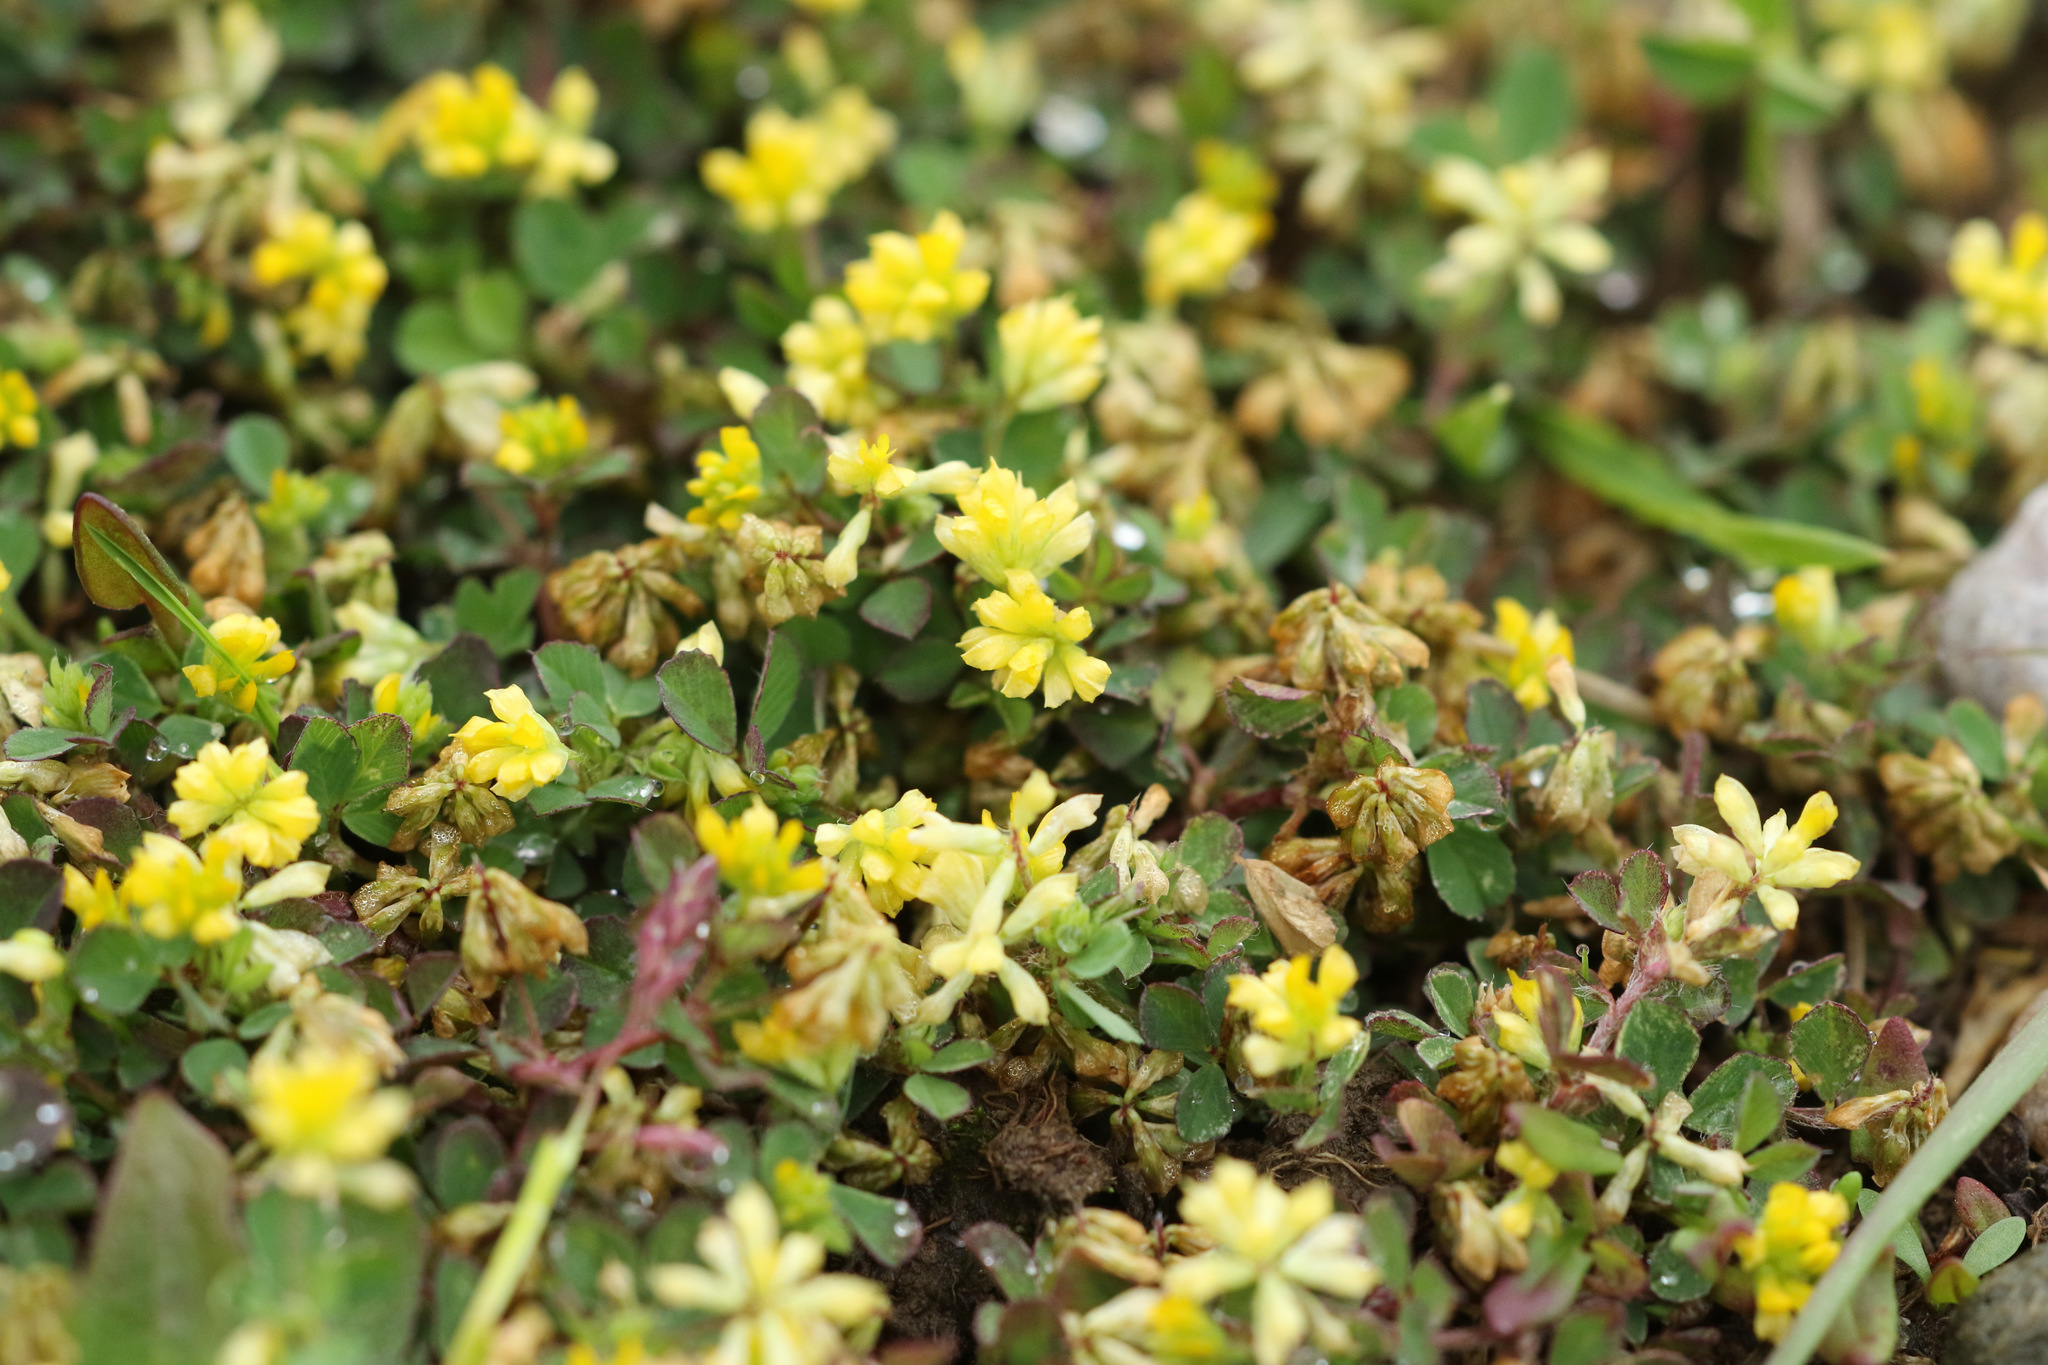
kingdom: Plantae
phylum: Tracheophyta
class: Magnoliopsida
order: Fabales
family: Fabaceae
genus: Trifolium
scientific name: Trifolium dubium
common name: Suckling clover
